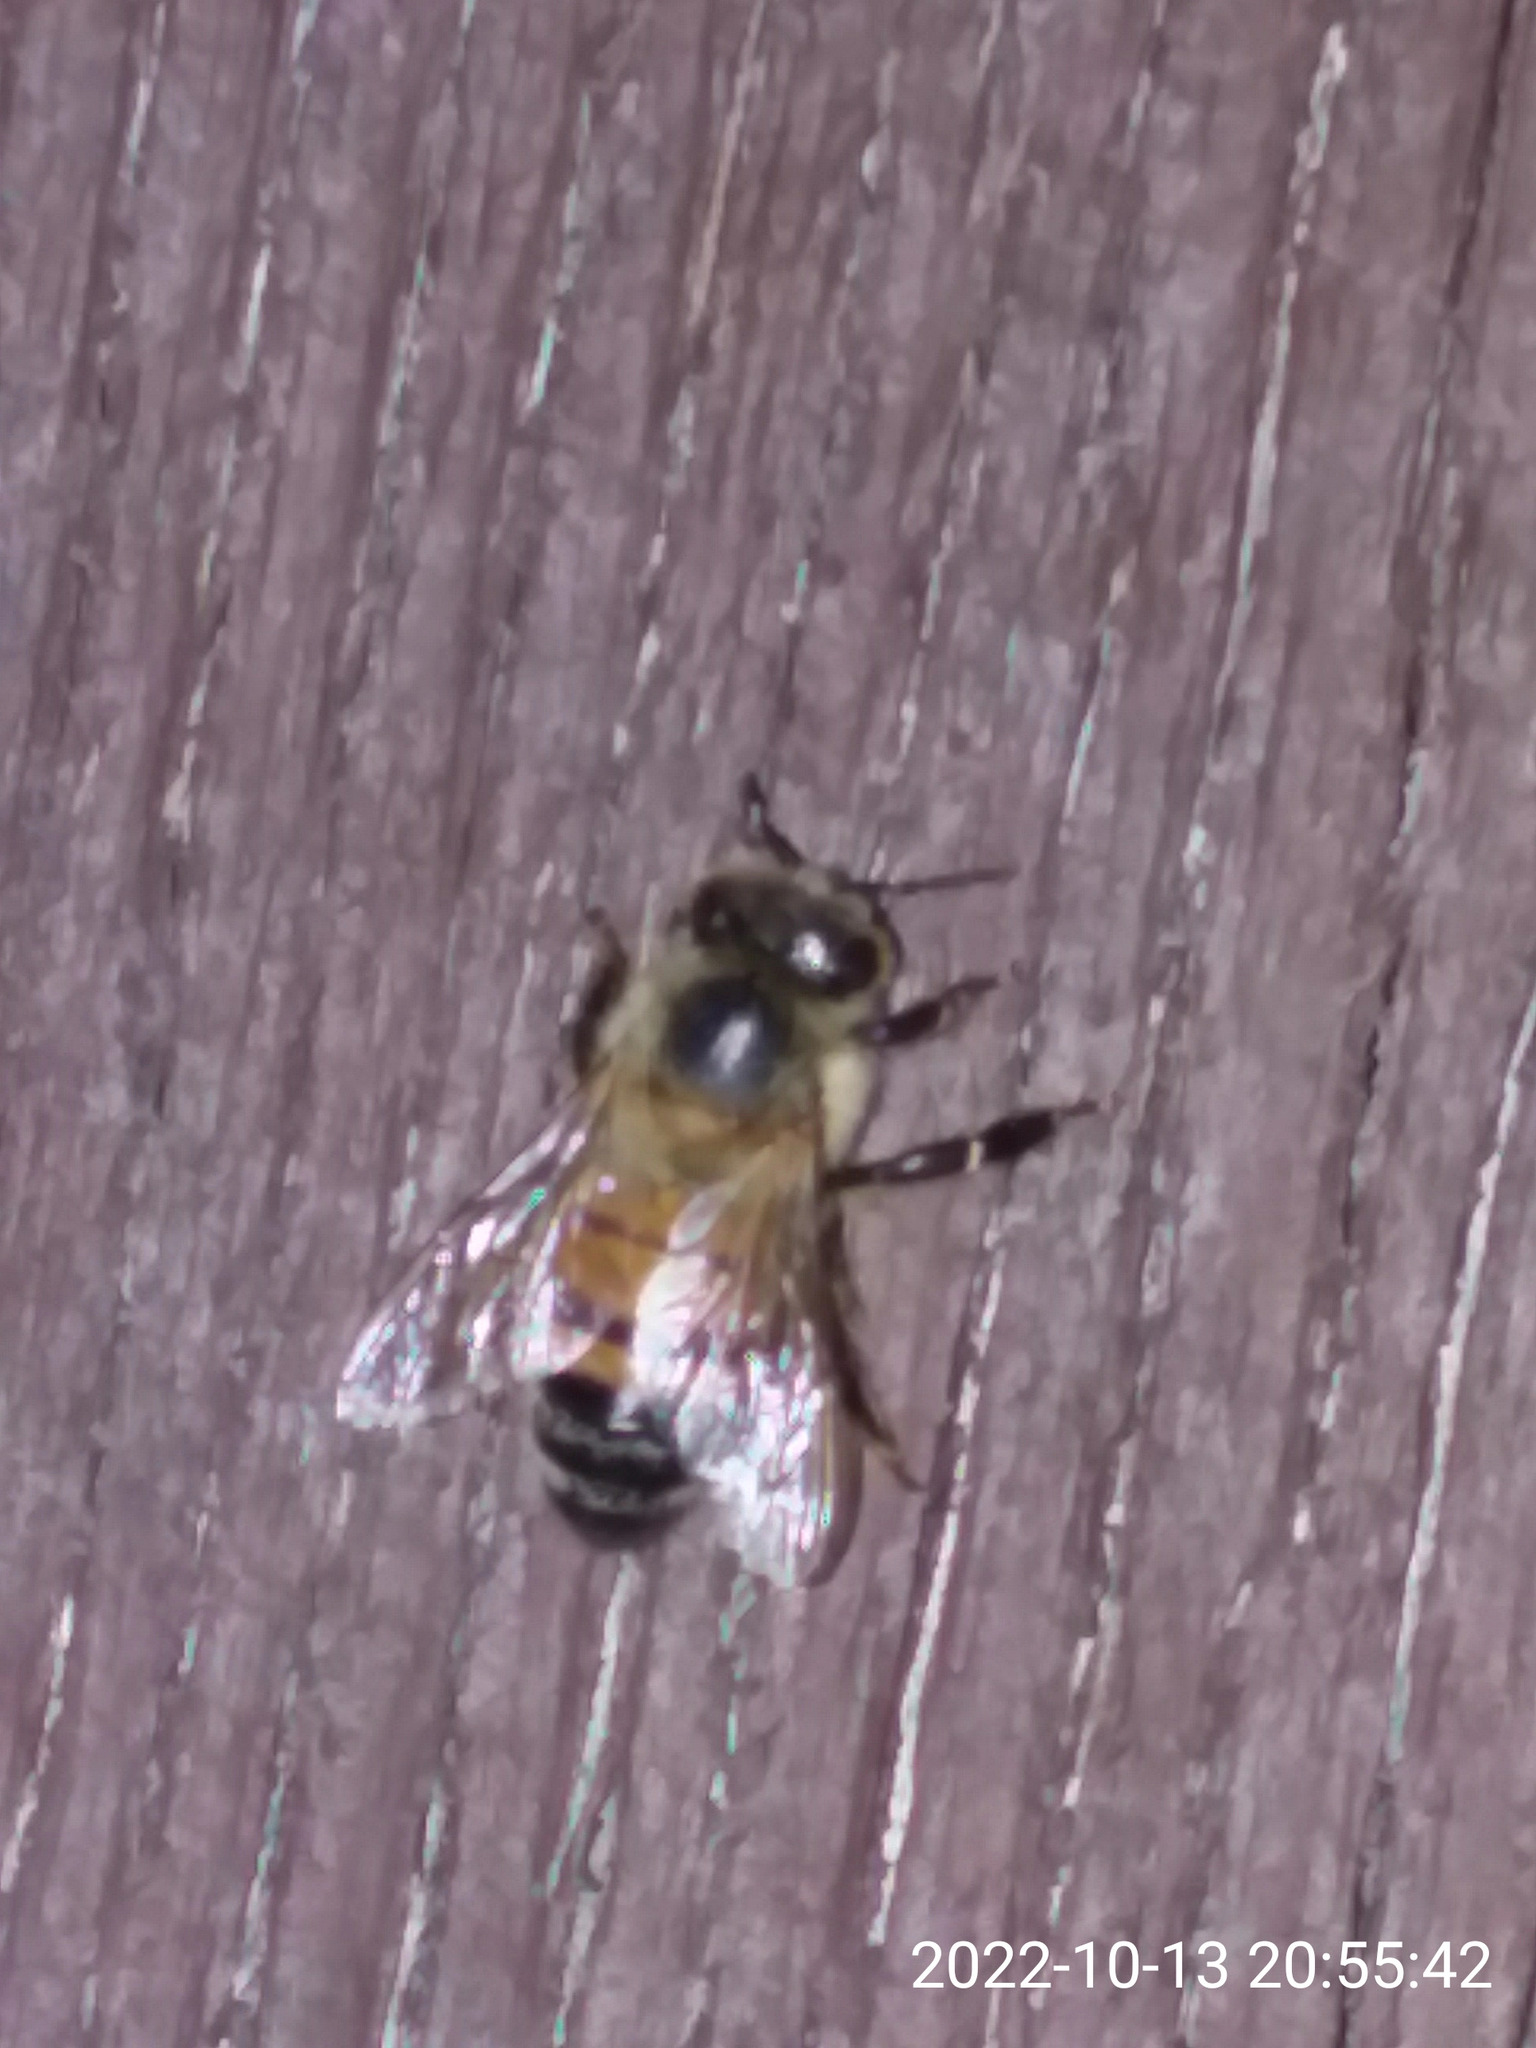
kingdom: Animalia
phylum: Arthropoda
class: Insecta
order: Hymenoptera
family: Apidae
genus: Apis
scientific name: Apis mellifera
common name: Honey bee
